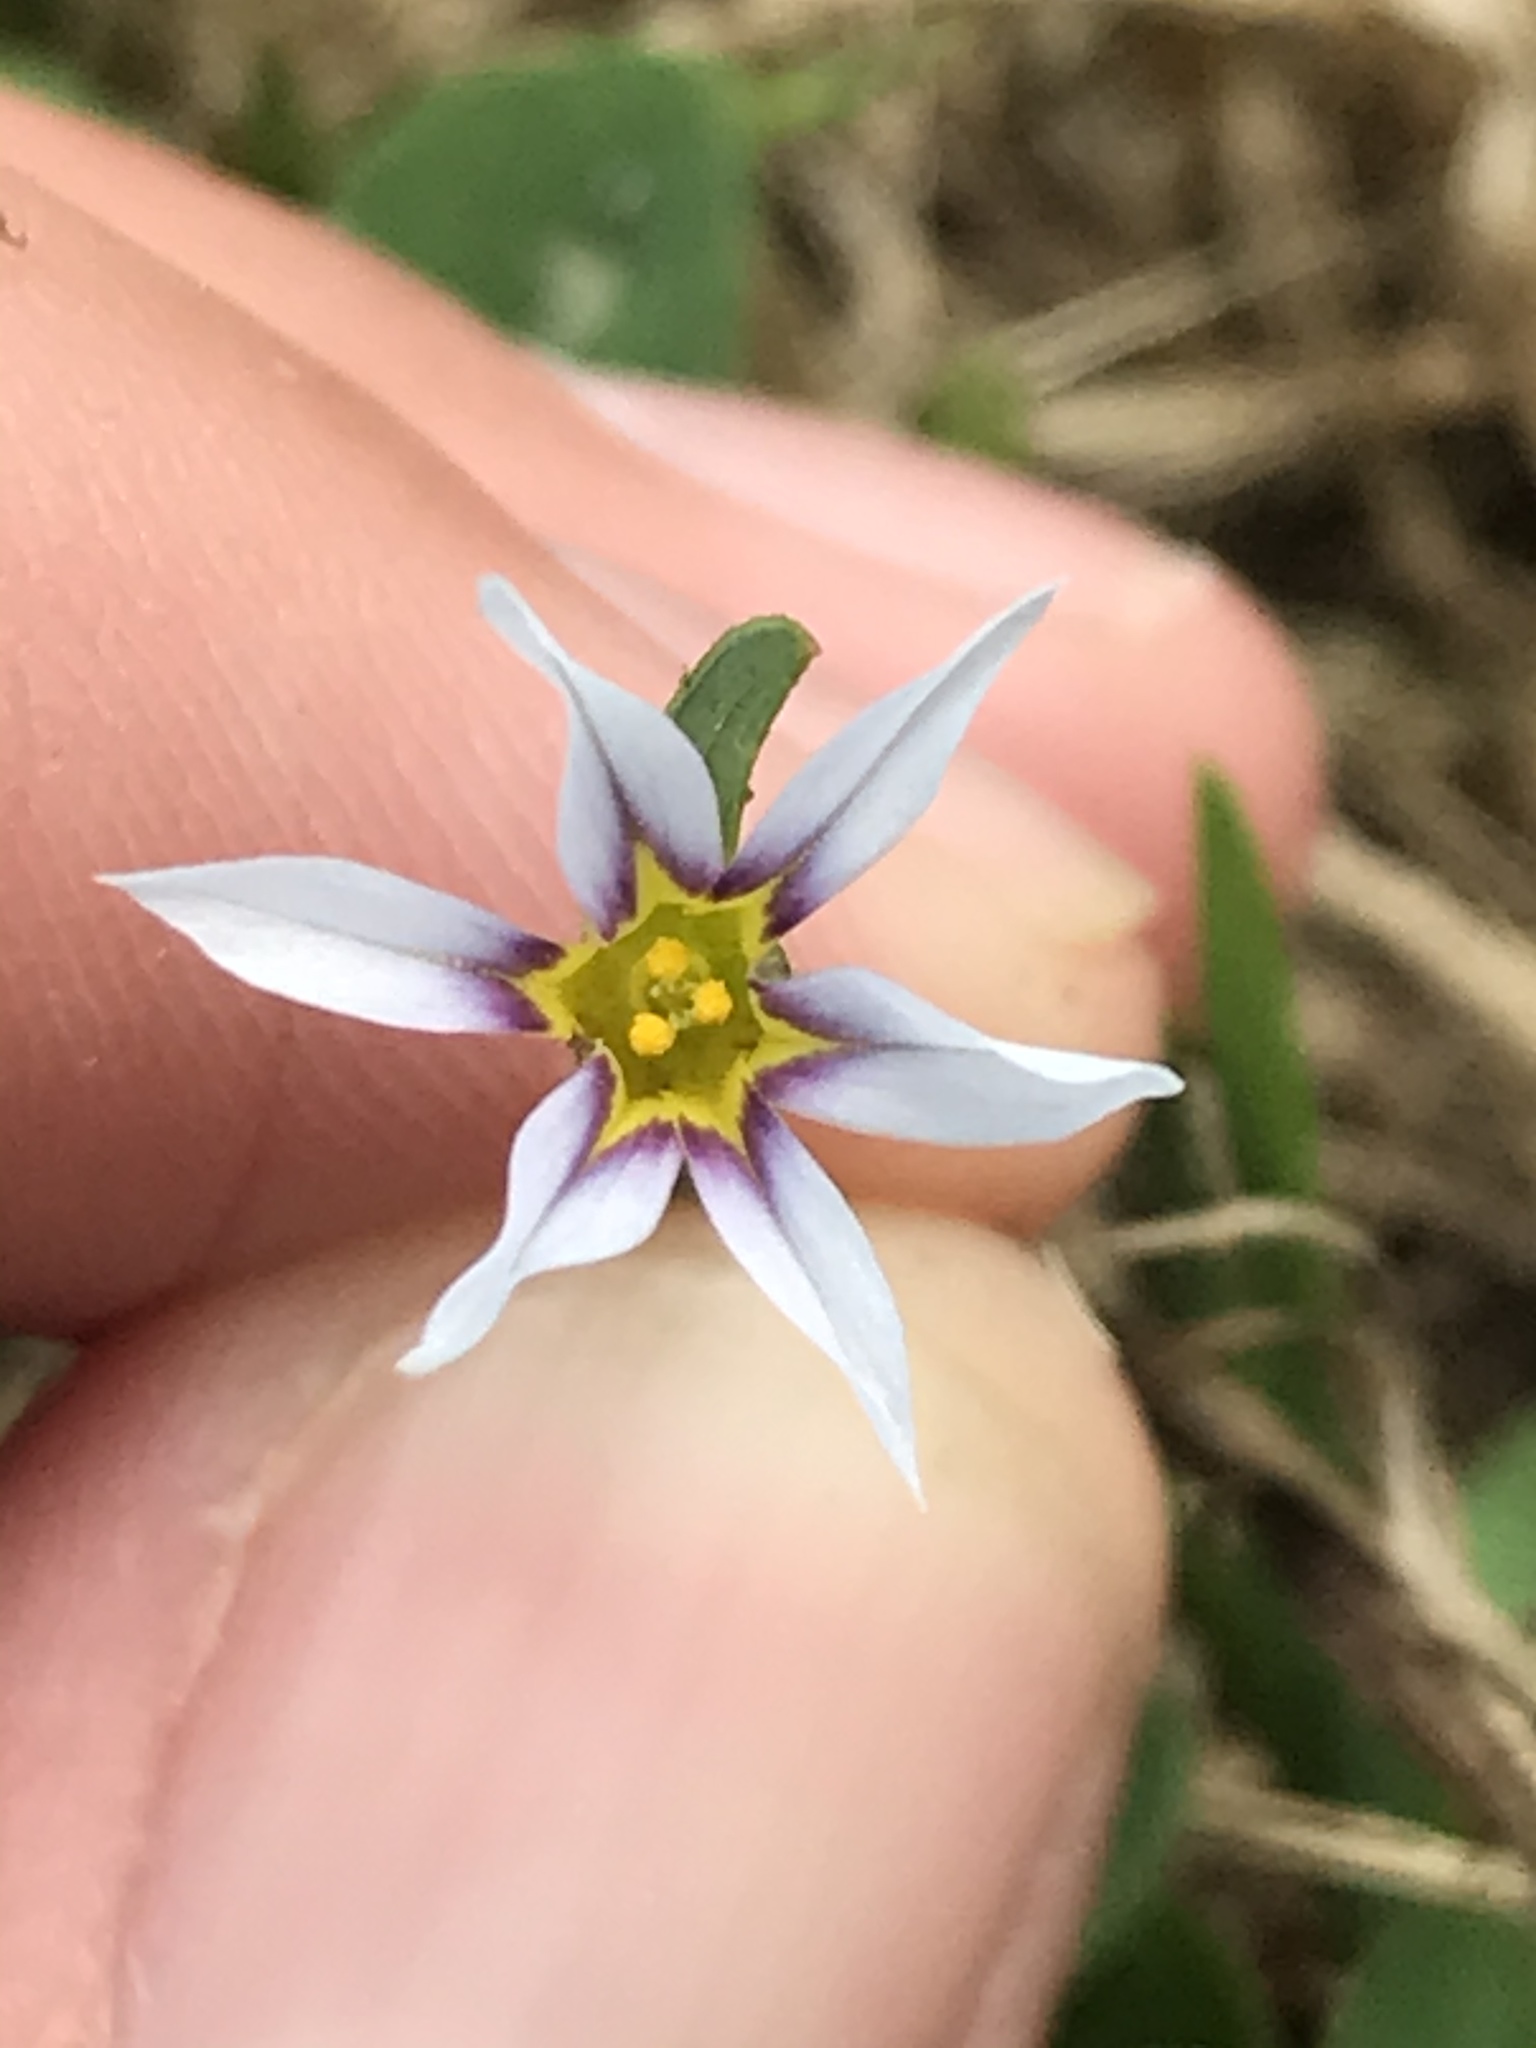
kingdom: Plantae
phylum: Tracheophyta
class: Liliopsida
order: Asparagales
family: Iridaceae
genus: Sisyrinchium
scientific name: Sisyrinchium micranthum
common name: Bermuda pigroot
